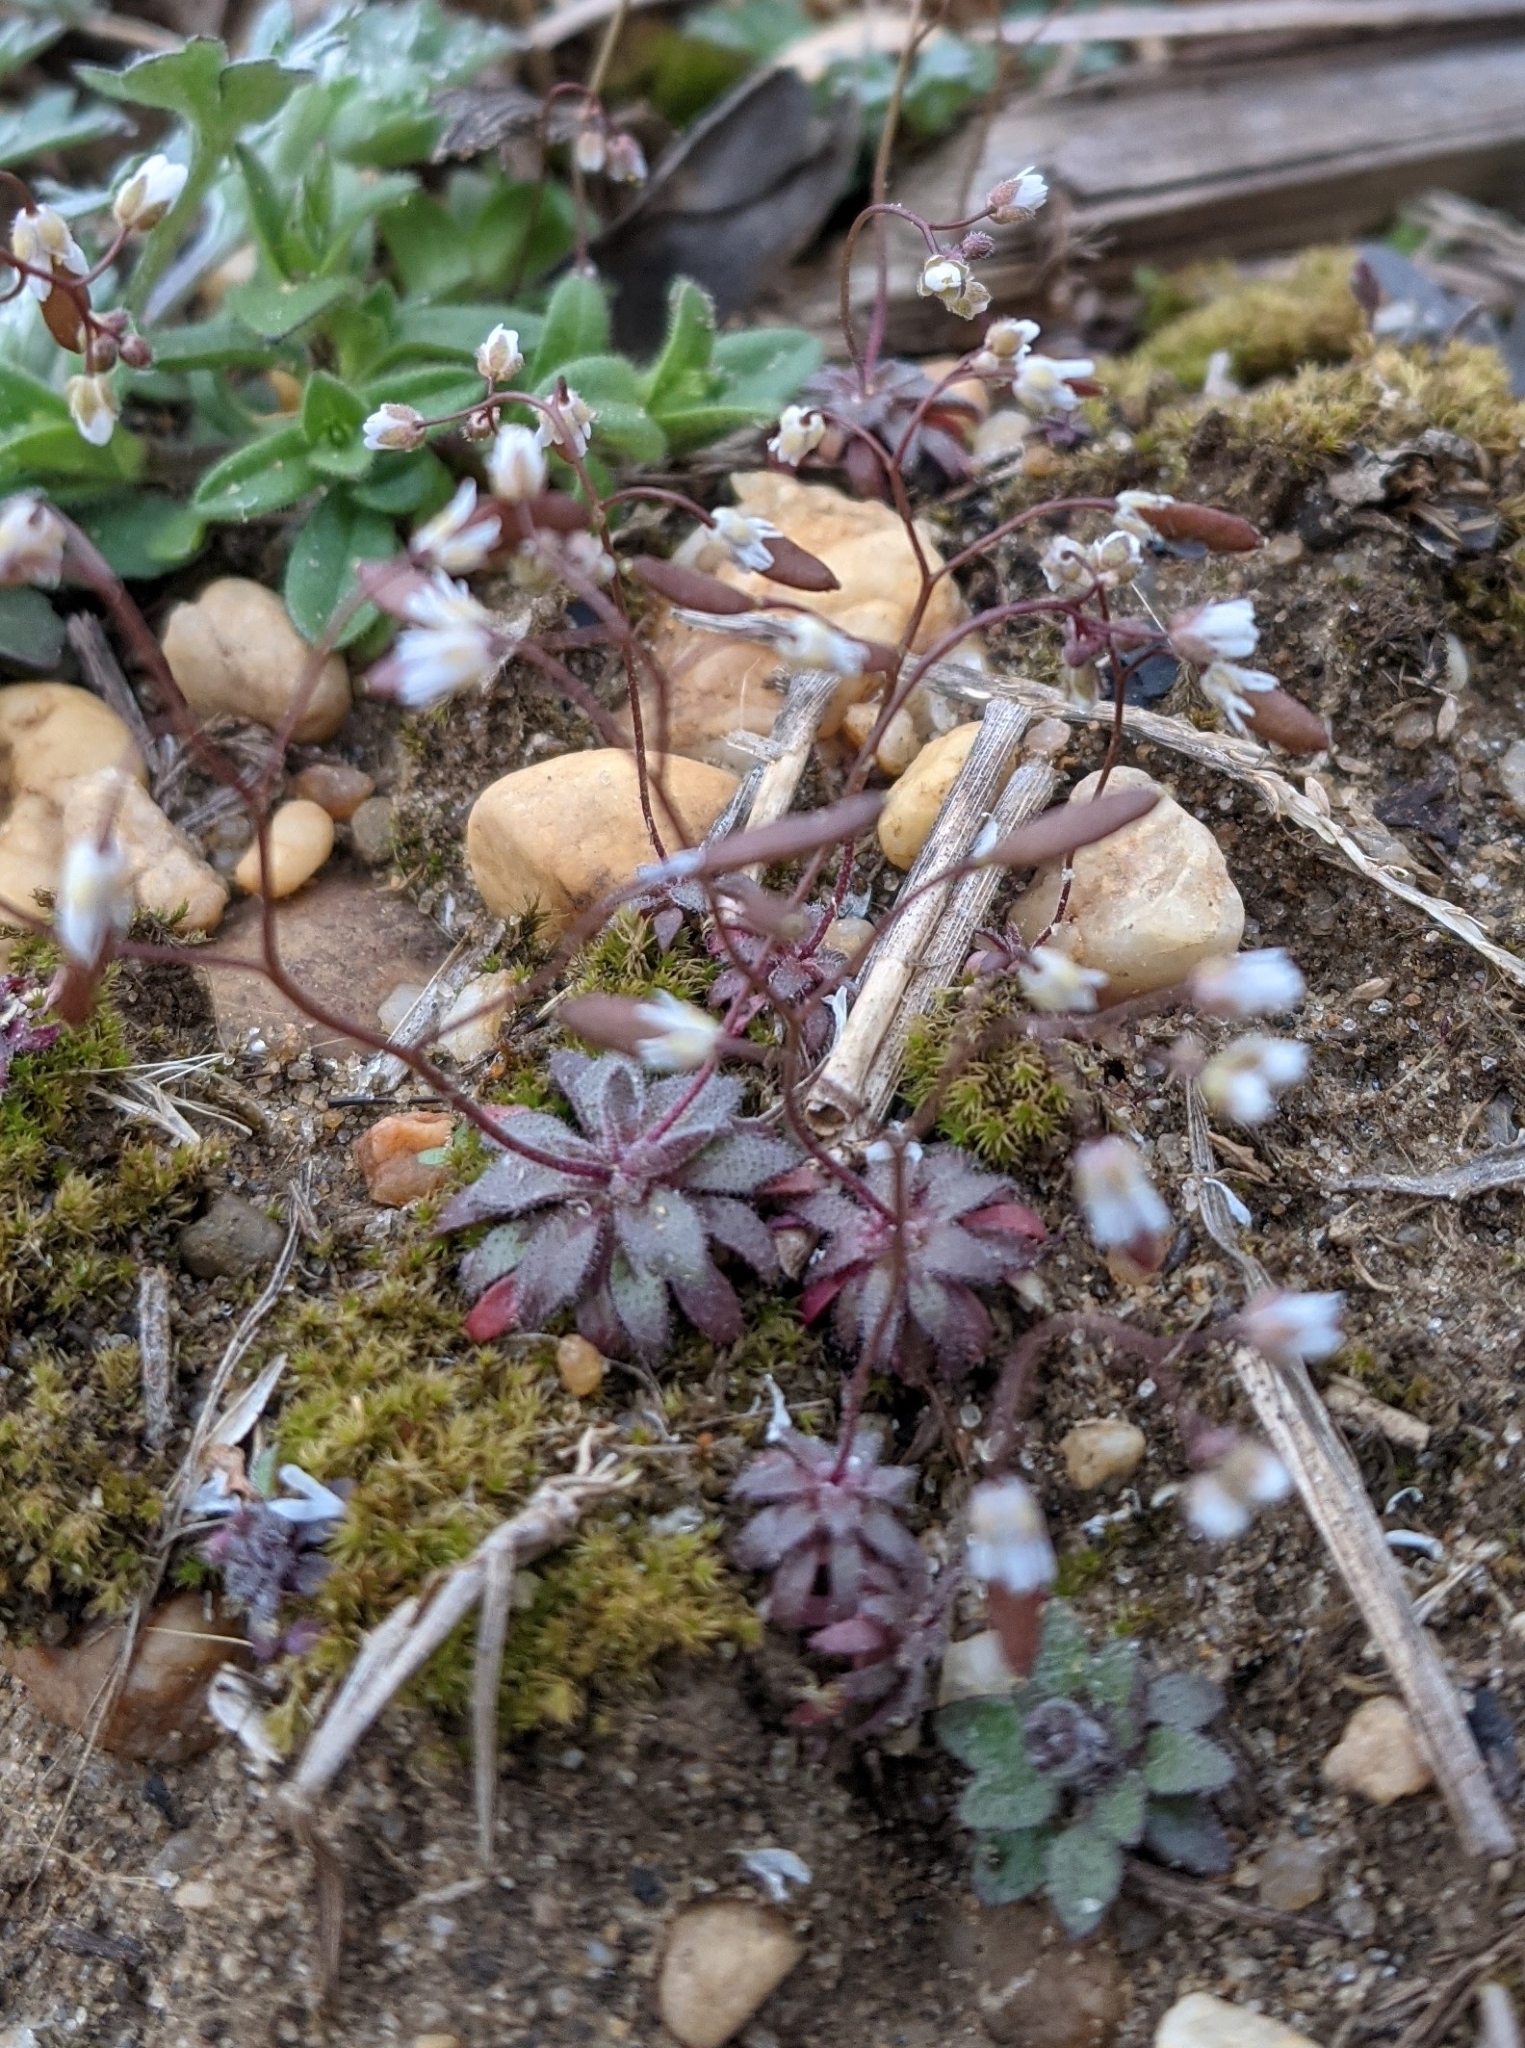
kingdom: Plantae
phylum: Tracheophyta
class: Magnoliopsida
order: Brassicales
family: Brassicaceae
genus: Draba
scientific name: Draba verna
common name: Spring draba
